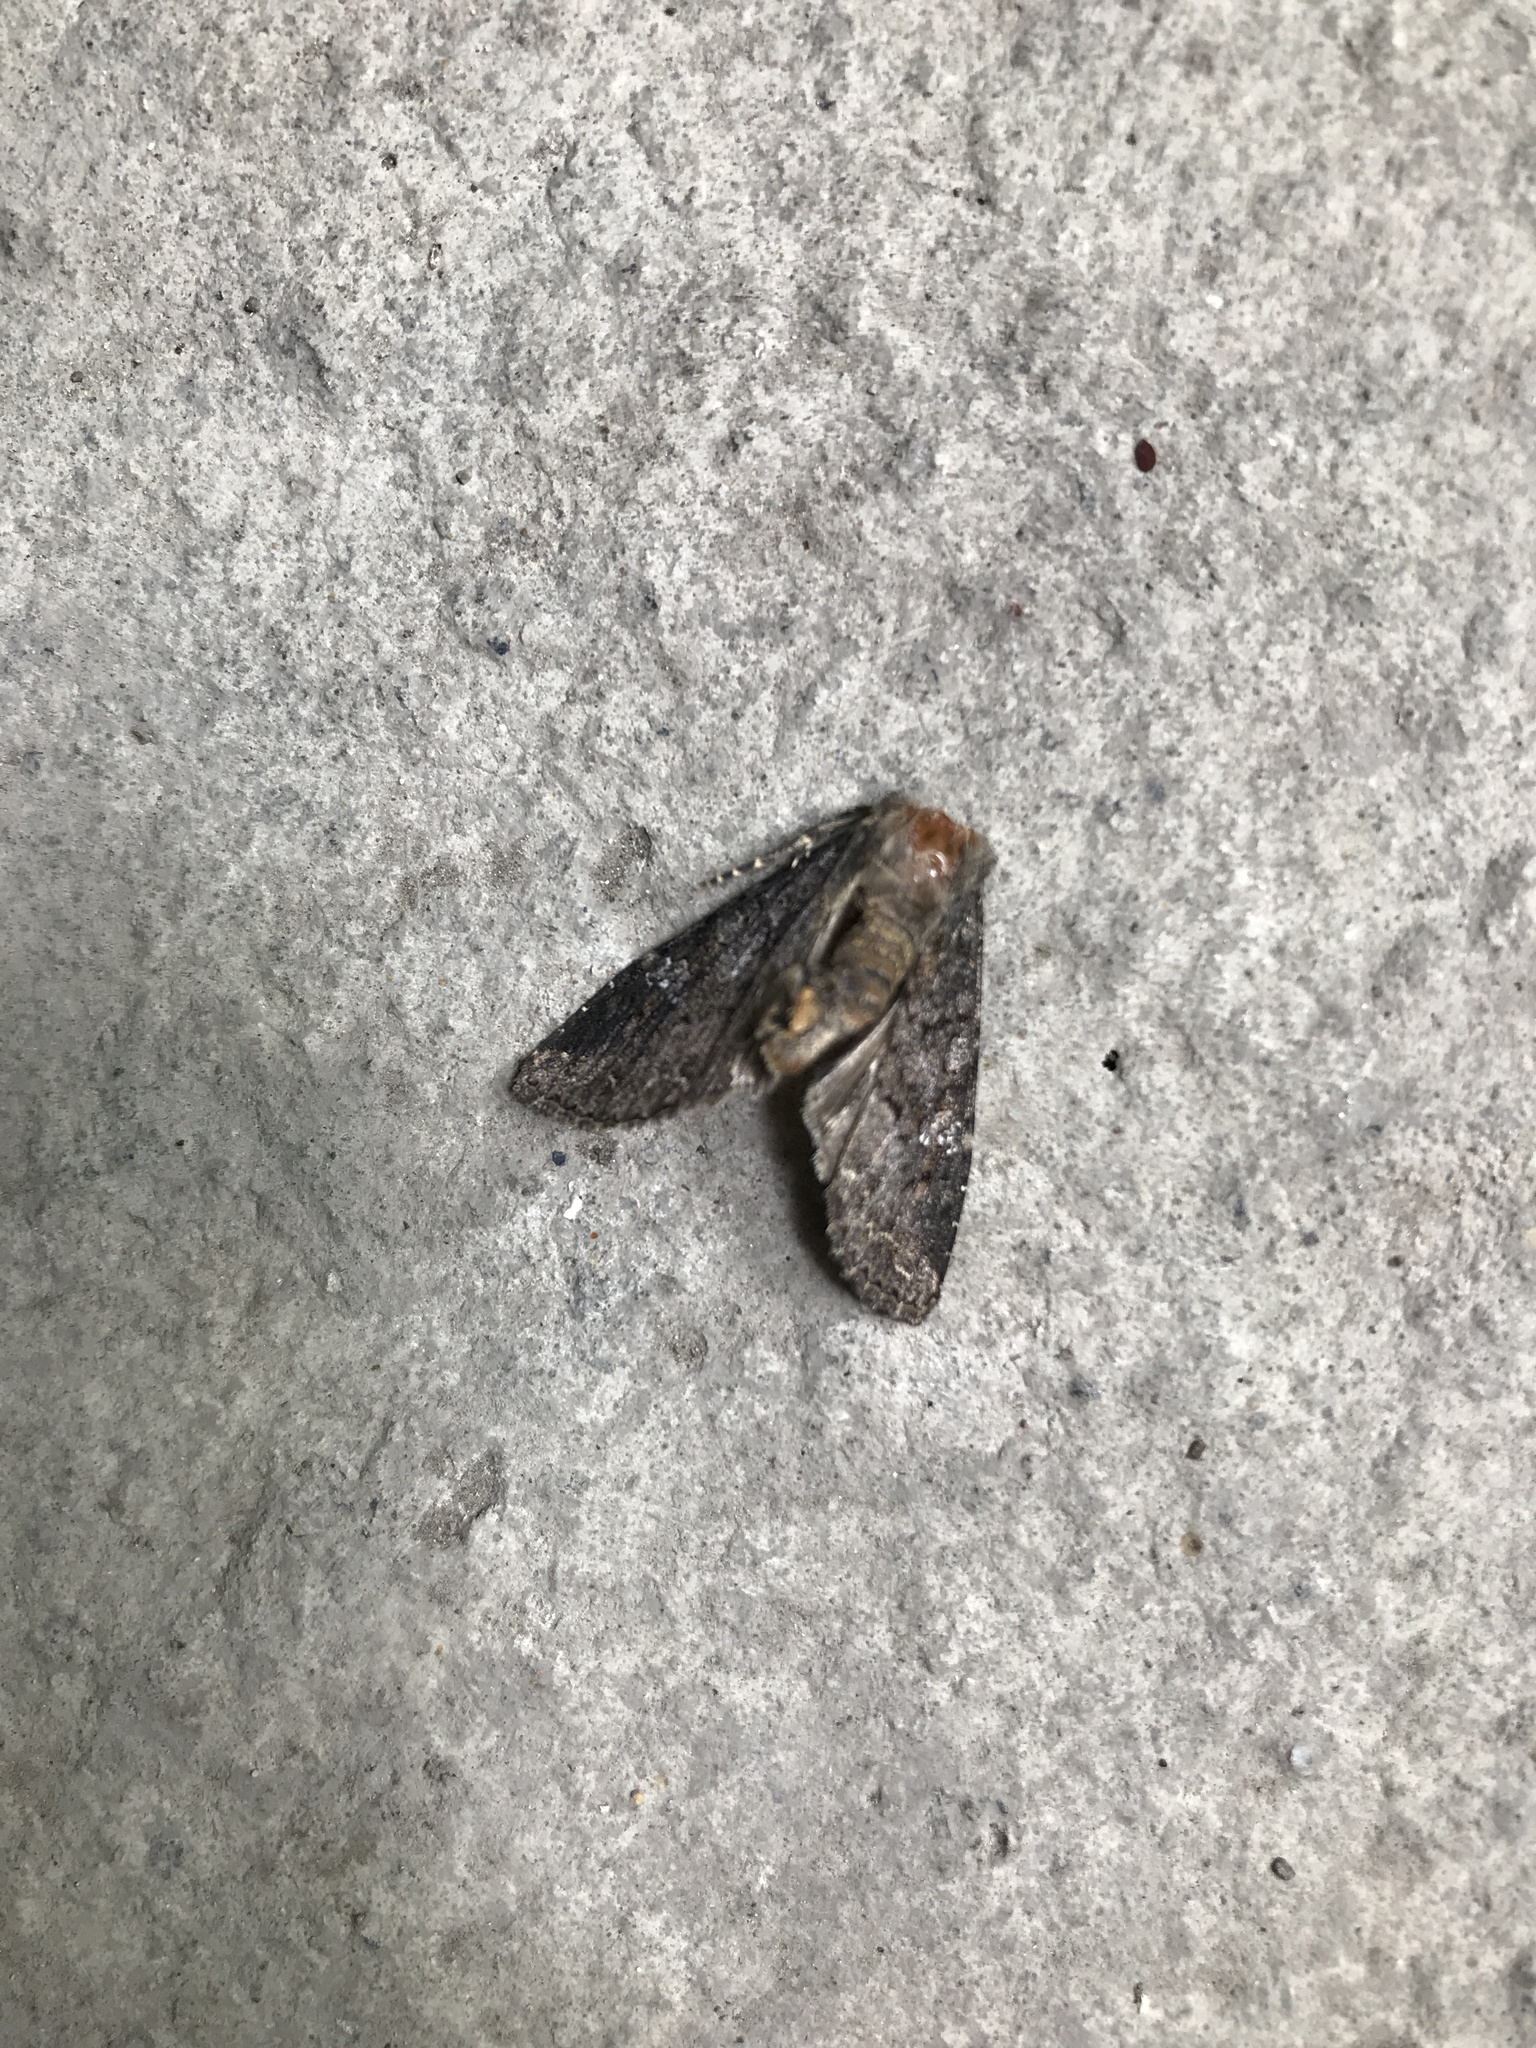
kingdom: Animalia
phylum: Arthropoda
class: Insecta
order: Lepidoptera
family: Noctuidae
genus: Mamestra
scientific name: Mamestra brassicae
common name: Cabbage moth
